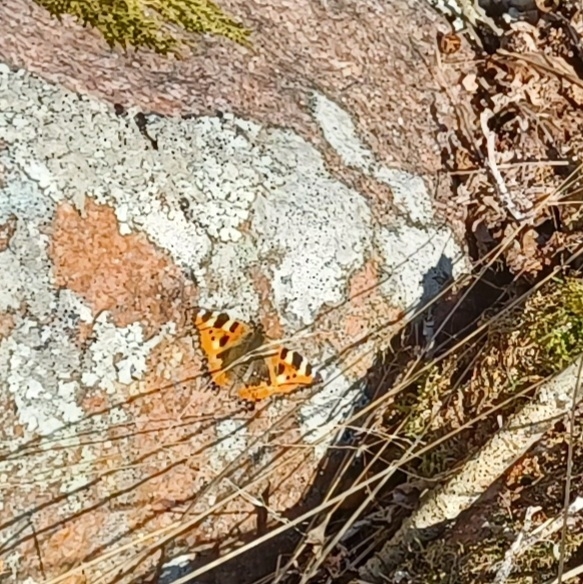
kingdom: Animalia
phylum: Arthropoda
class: Insecta
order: Lepidoptera
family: Nymphalidae
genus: Aglais
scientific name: Aglais urticae
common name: Small tortoiseshell
